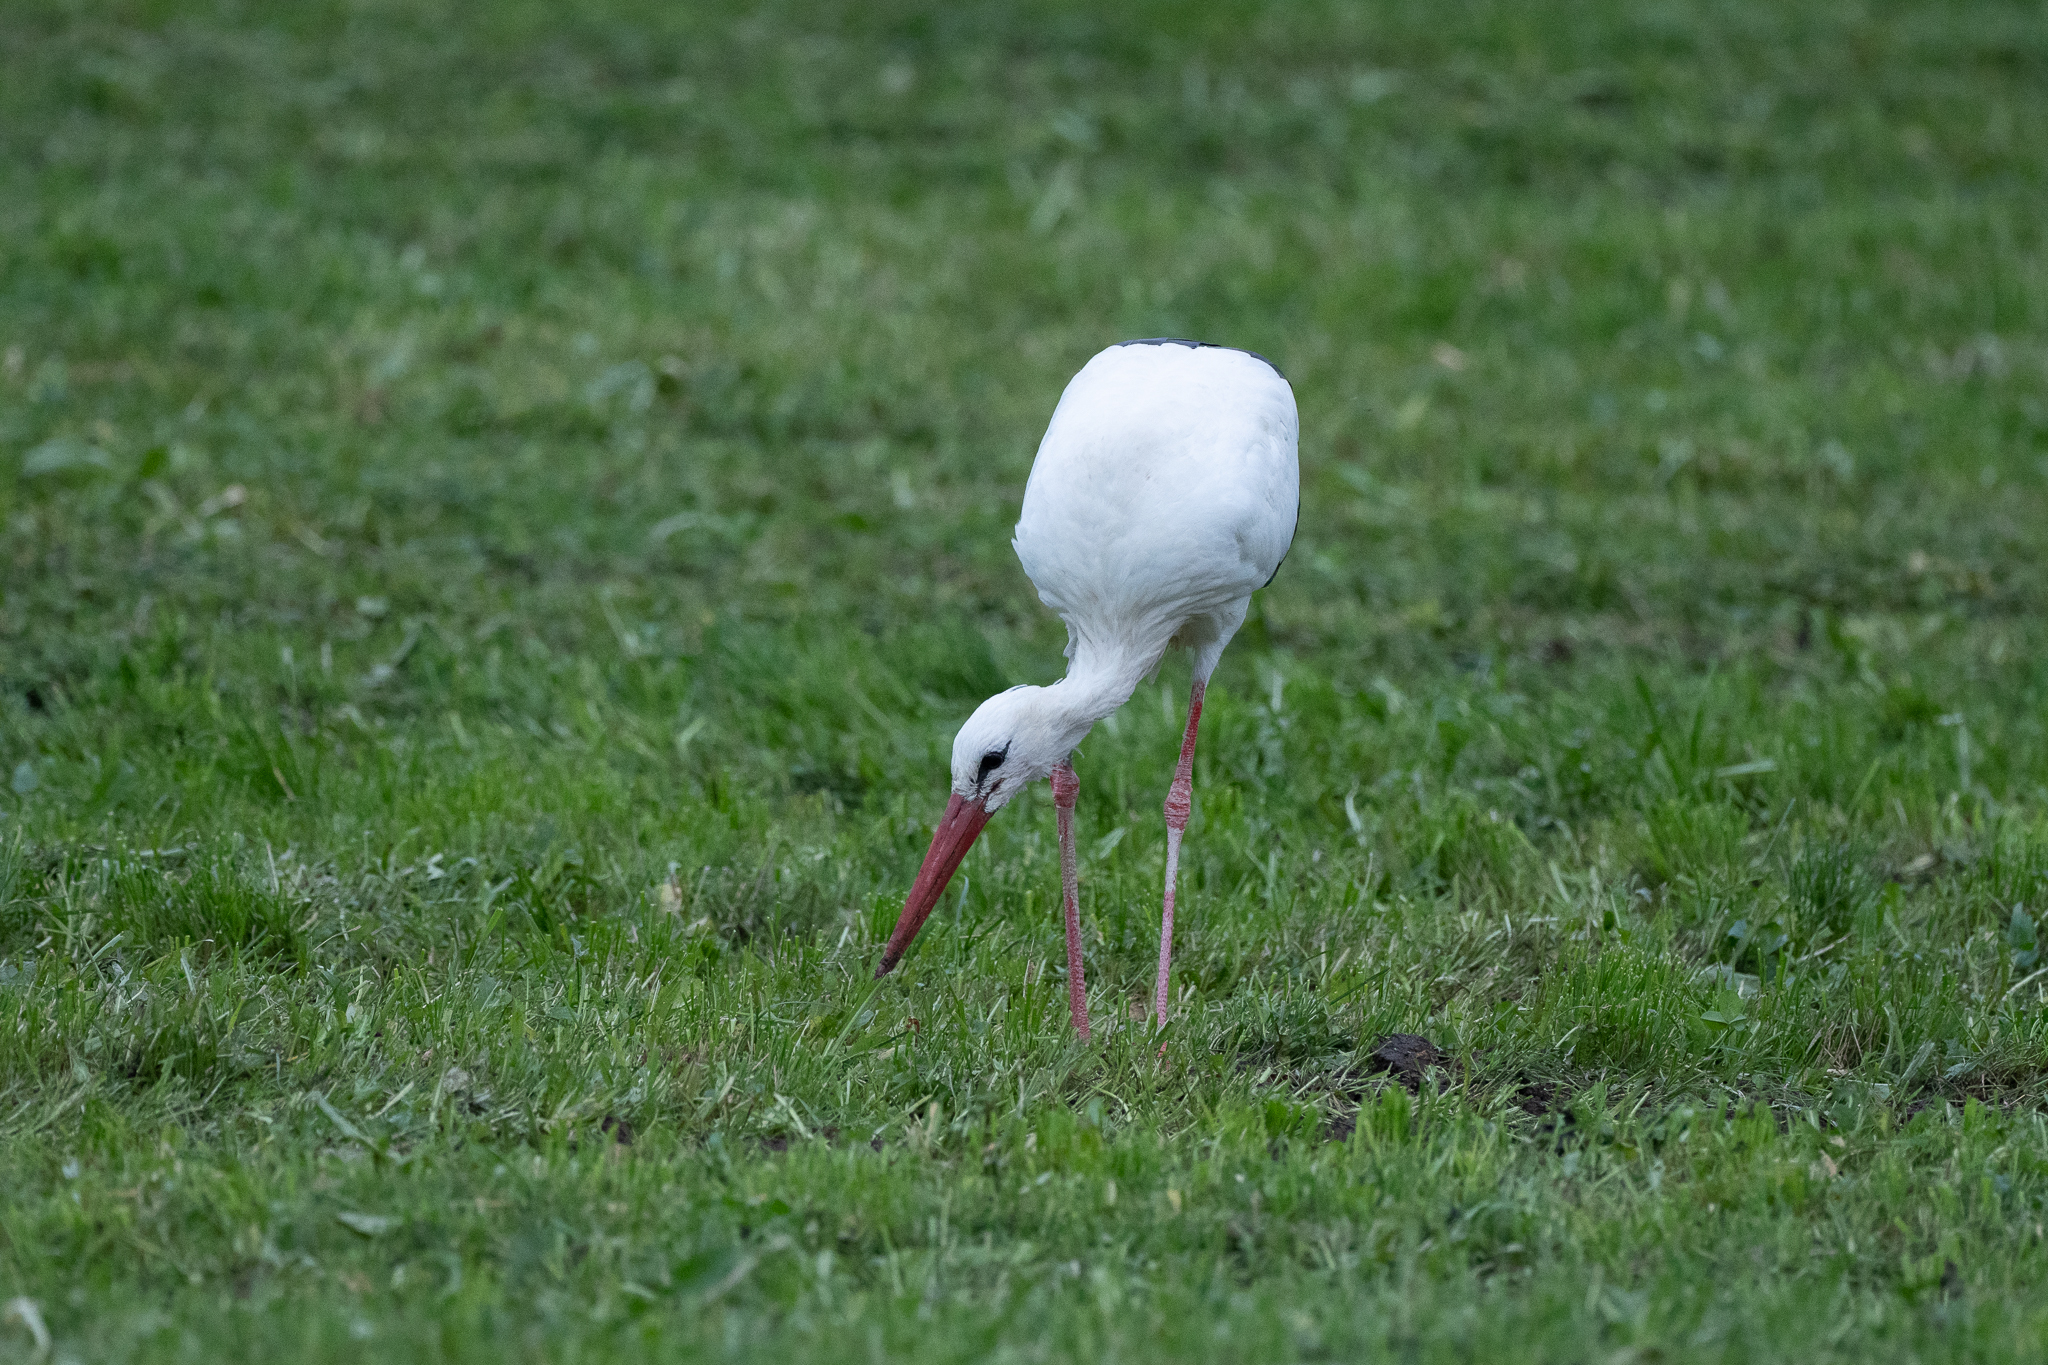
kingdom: Animalia
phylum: Chordata
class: Aves
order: Ciconiiformes
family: Ciconiidae
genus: Ciconia
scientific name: Ciconia ciconia
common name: White stork
